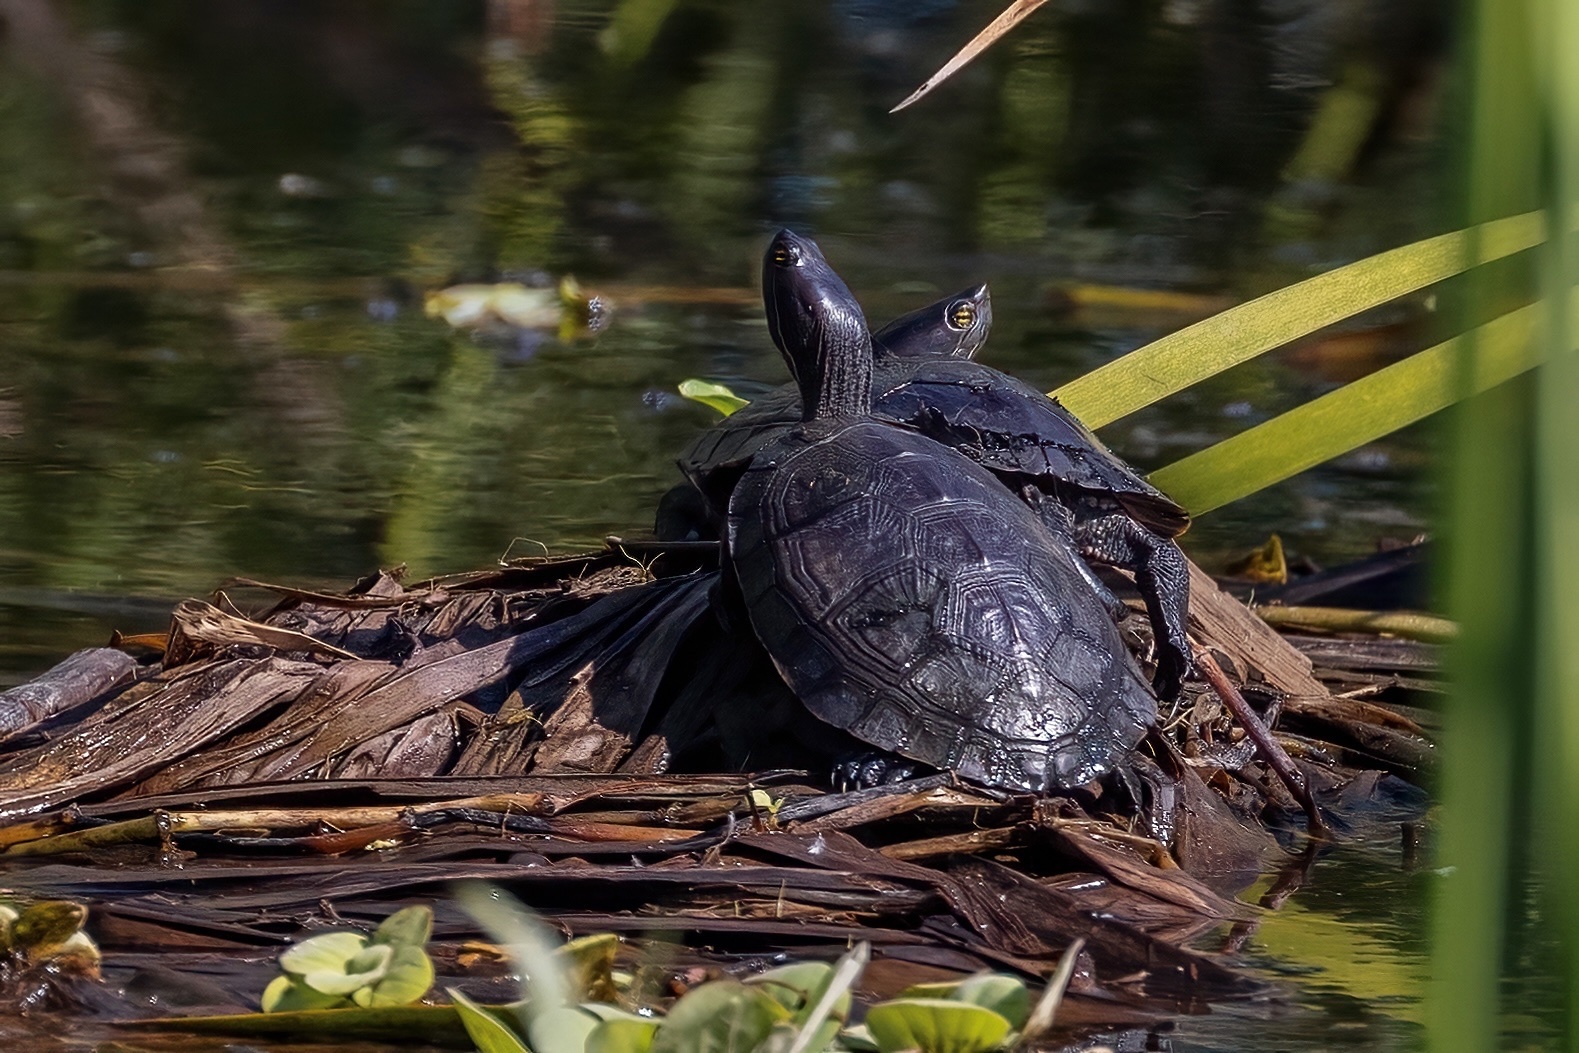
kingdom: Animalia
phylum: Chordata
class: Testudines
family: Emydidae
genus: Trachemys
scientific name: Trachemys stejnegeri
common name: Puerto rican slider
